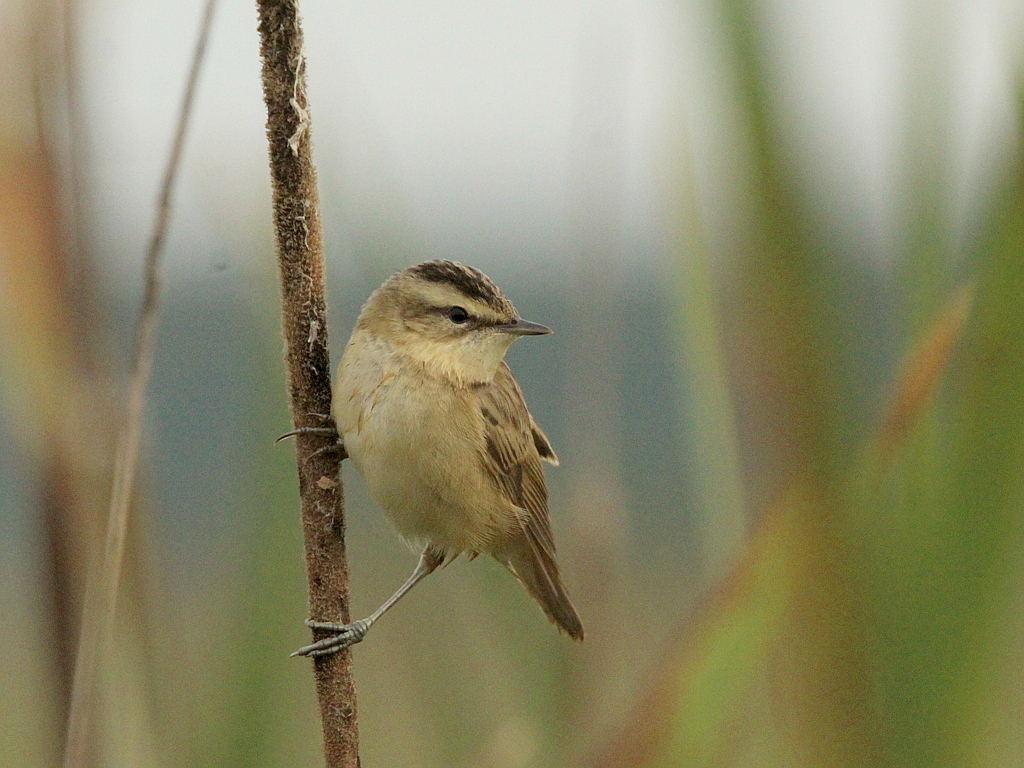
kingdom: Animalia
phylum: Chordata
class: Aves
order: Passeriformes
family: Acrocephalidae
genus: Acrocephalus
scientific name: Acrocephalus schoenobaenus
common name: Sedge warbler
